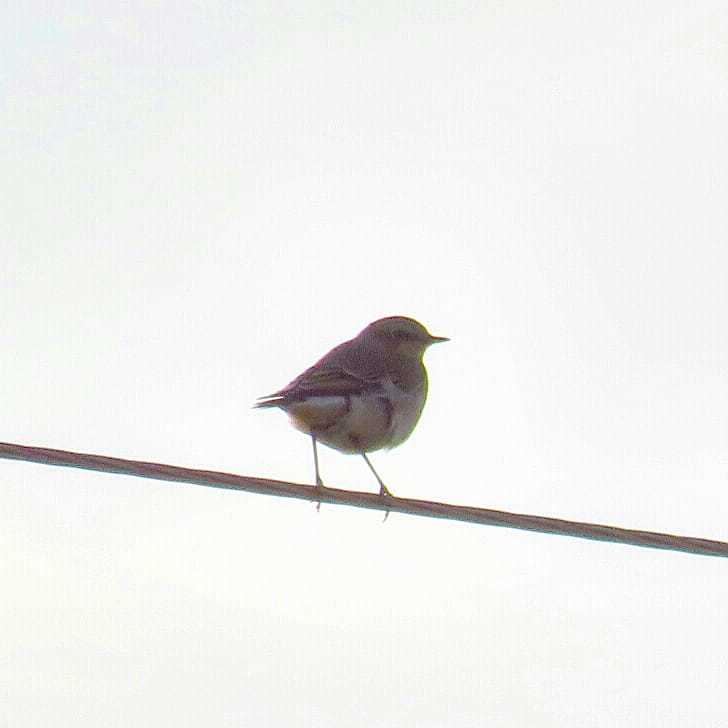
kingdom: Animalia
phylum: Chordata
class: Aves
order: Passeriformes
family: Muscicapidae
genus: Oenanthe
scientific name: Oenanthe oenanthe
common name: Northern wheatear
